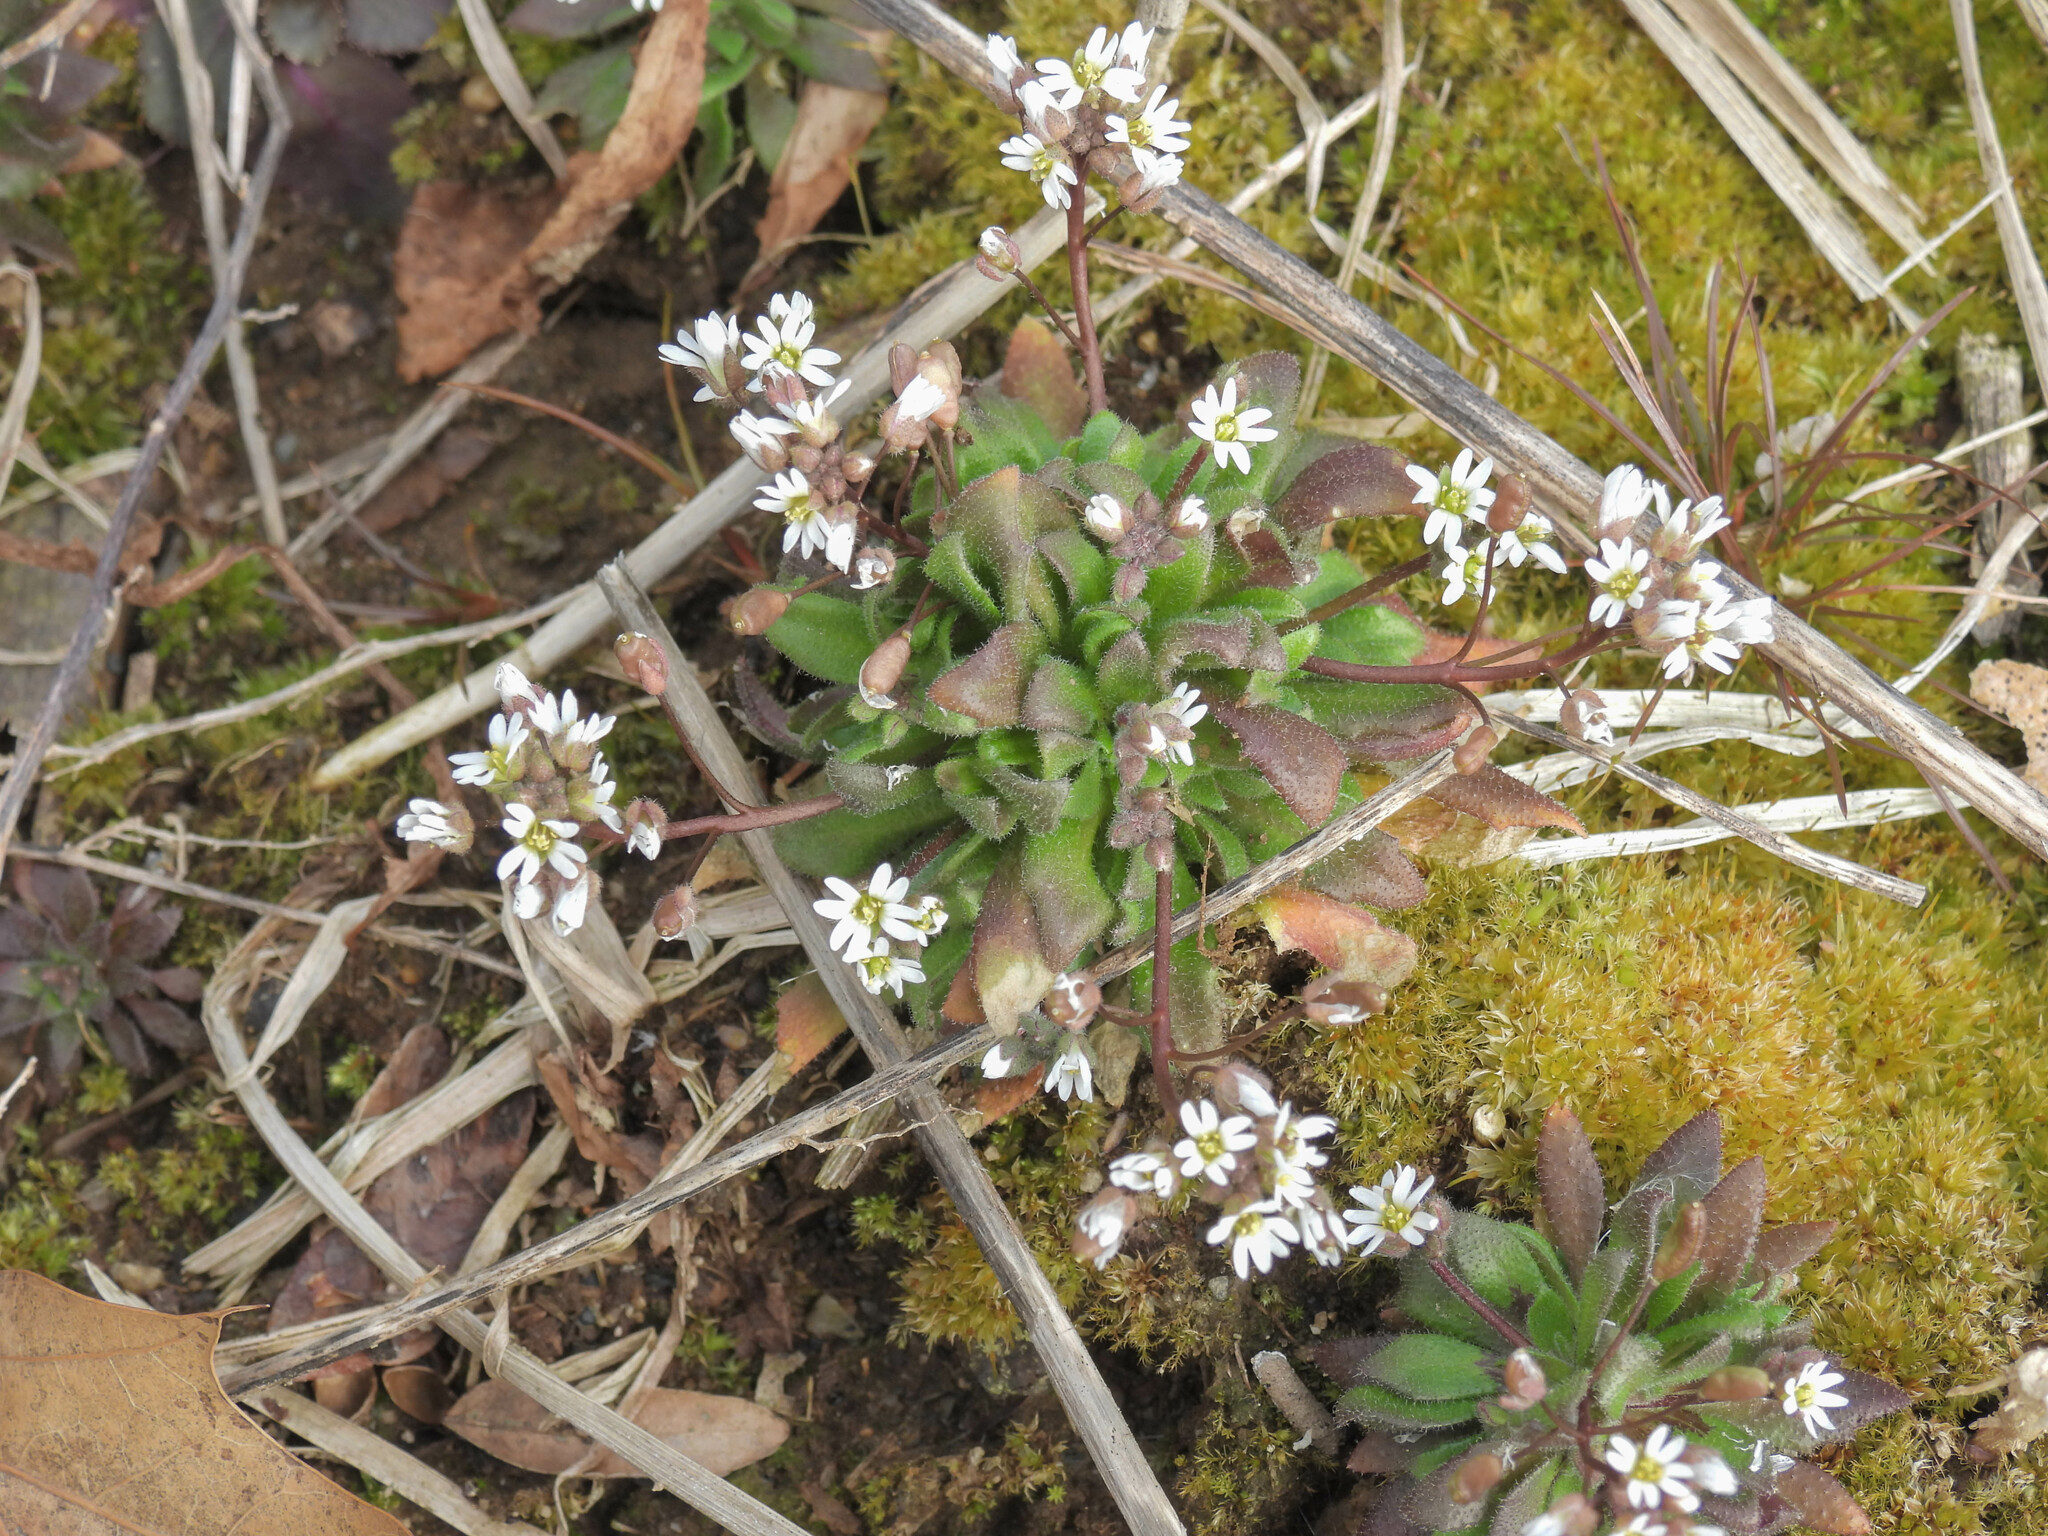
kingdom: Plantae
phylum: Tracheophyta
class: Magnoliopsida
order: Brassicales
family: Brassicaceae
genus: Draba
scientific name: Draba verna
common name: Spring draba
